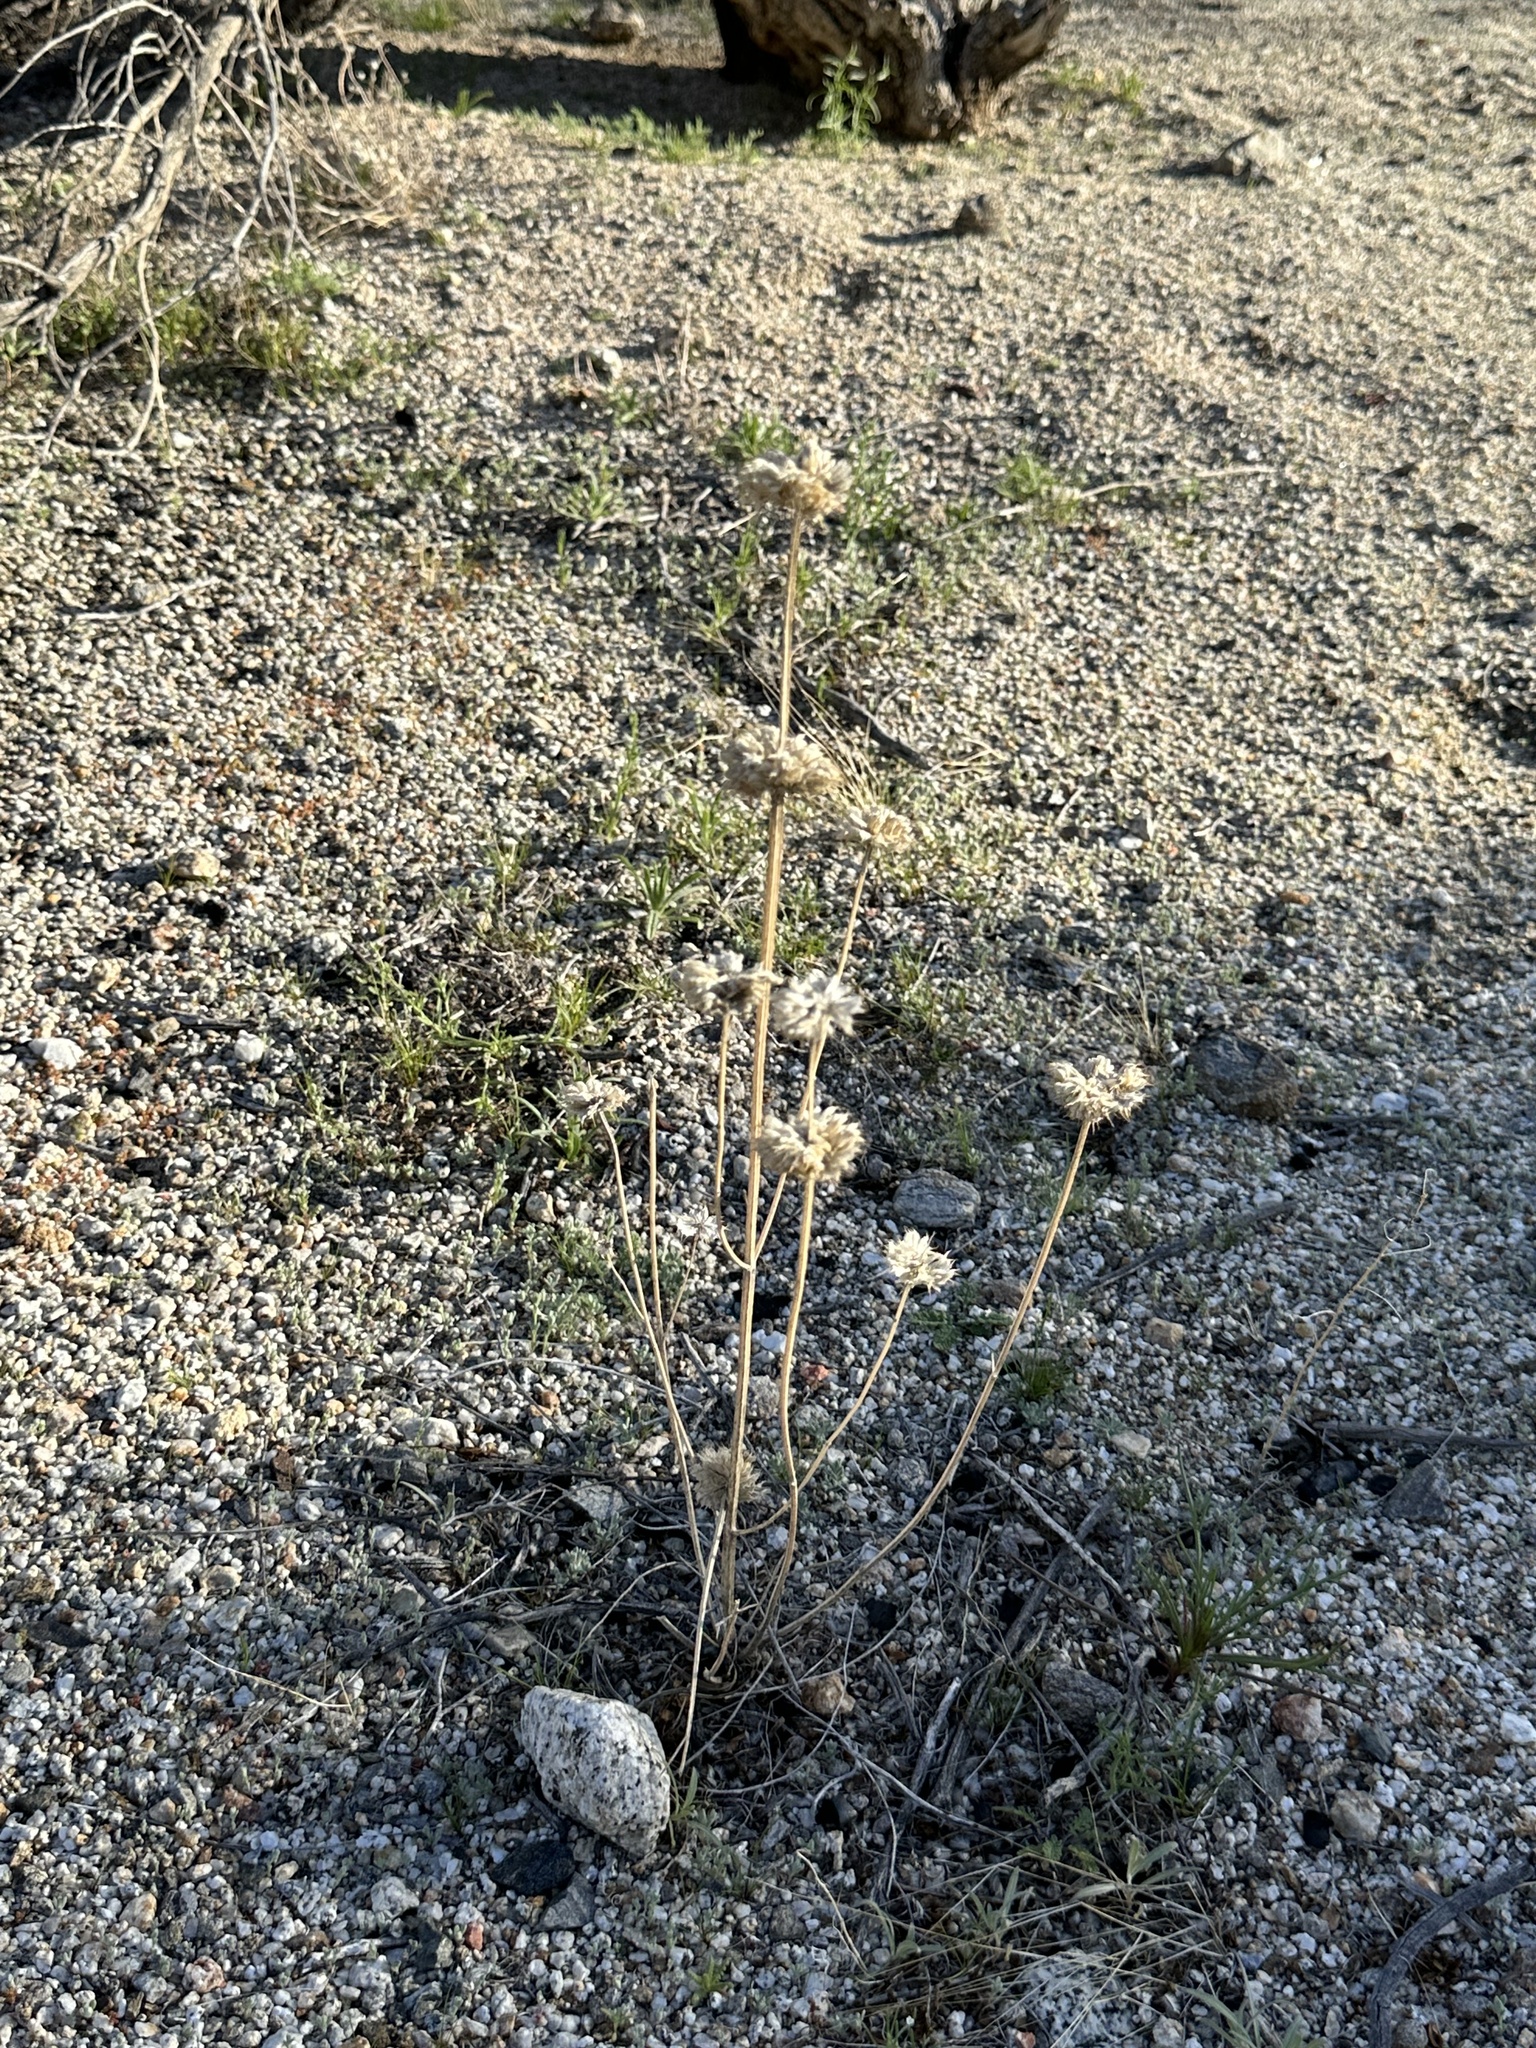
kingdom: Plantae
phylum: Tracheophyta
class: Magnoliopsida
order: Lamiales
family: Lamiaceae
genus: Salvia
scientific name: Salvia columbariae
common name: Chia
